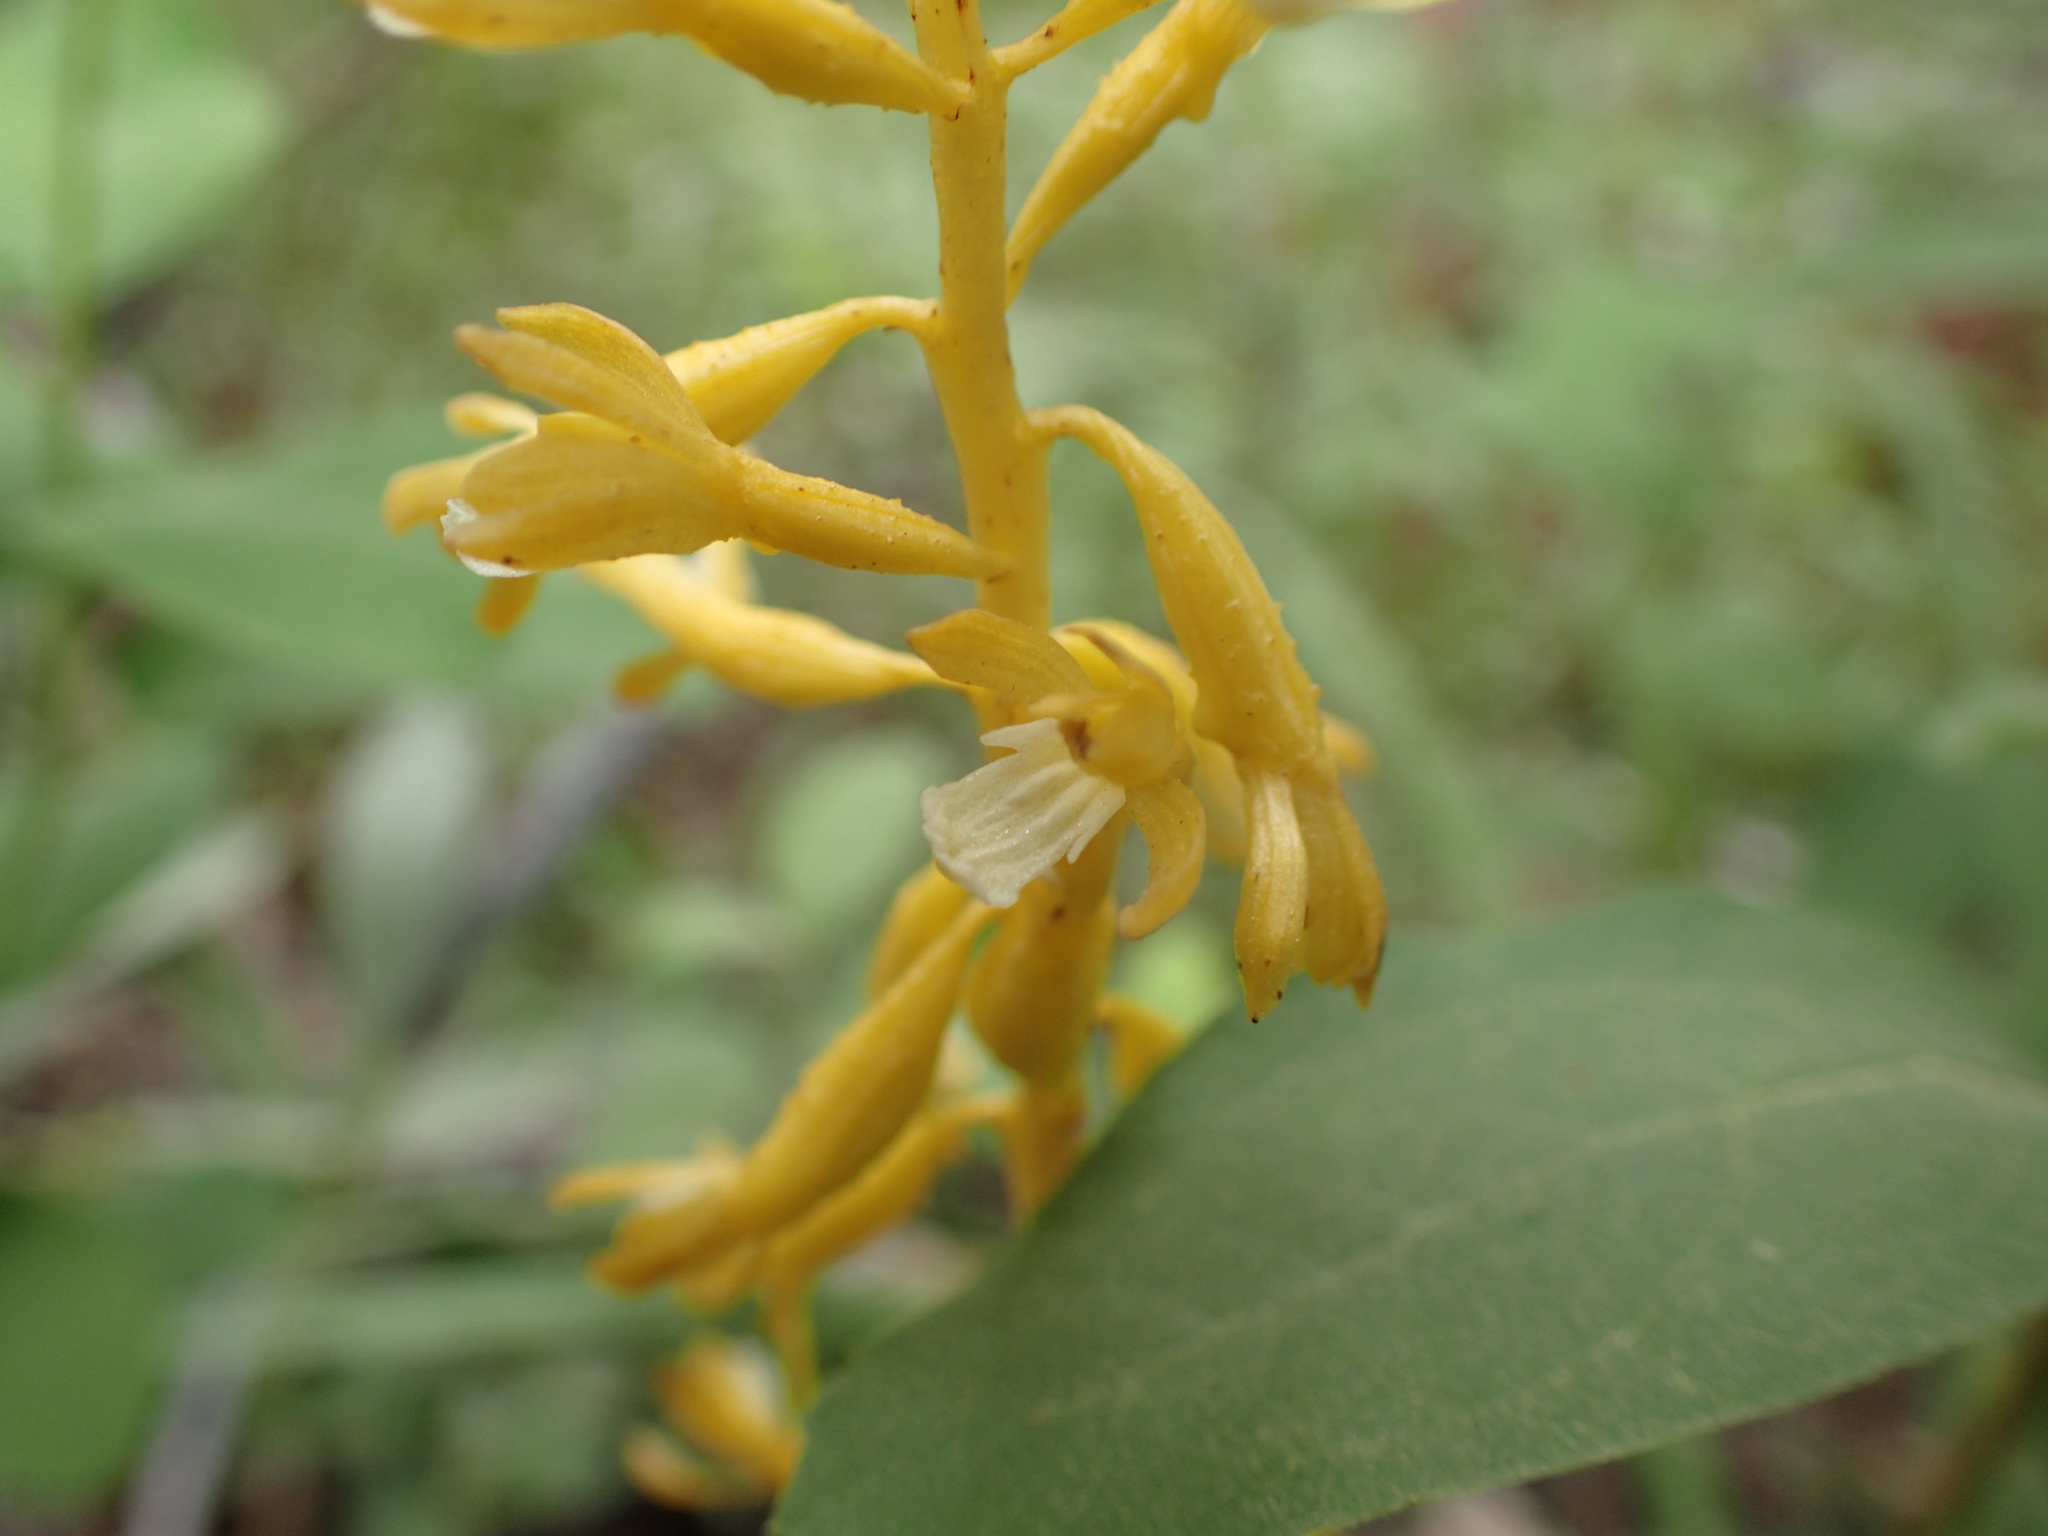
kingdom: Plantae
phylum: Tracheophyta
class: Liliopsida
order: Asparagales
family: Orchidaceae
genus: Corallorhiza
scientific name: Corallorhiza maculata
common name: Spotted coralroot
